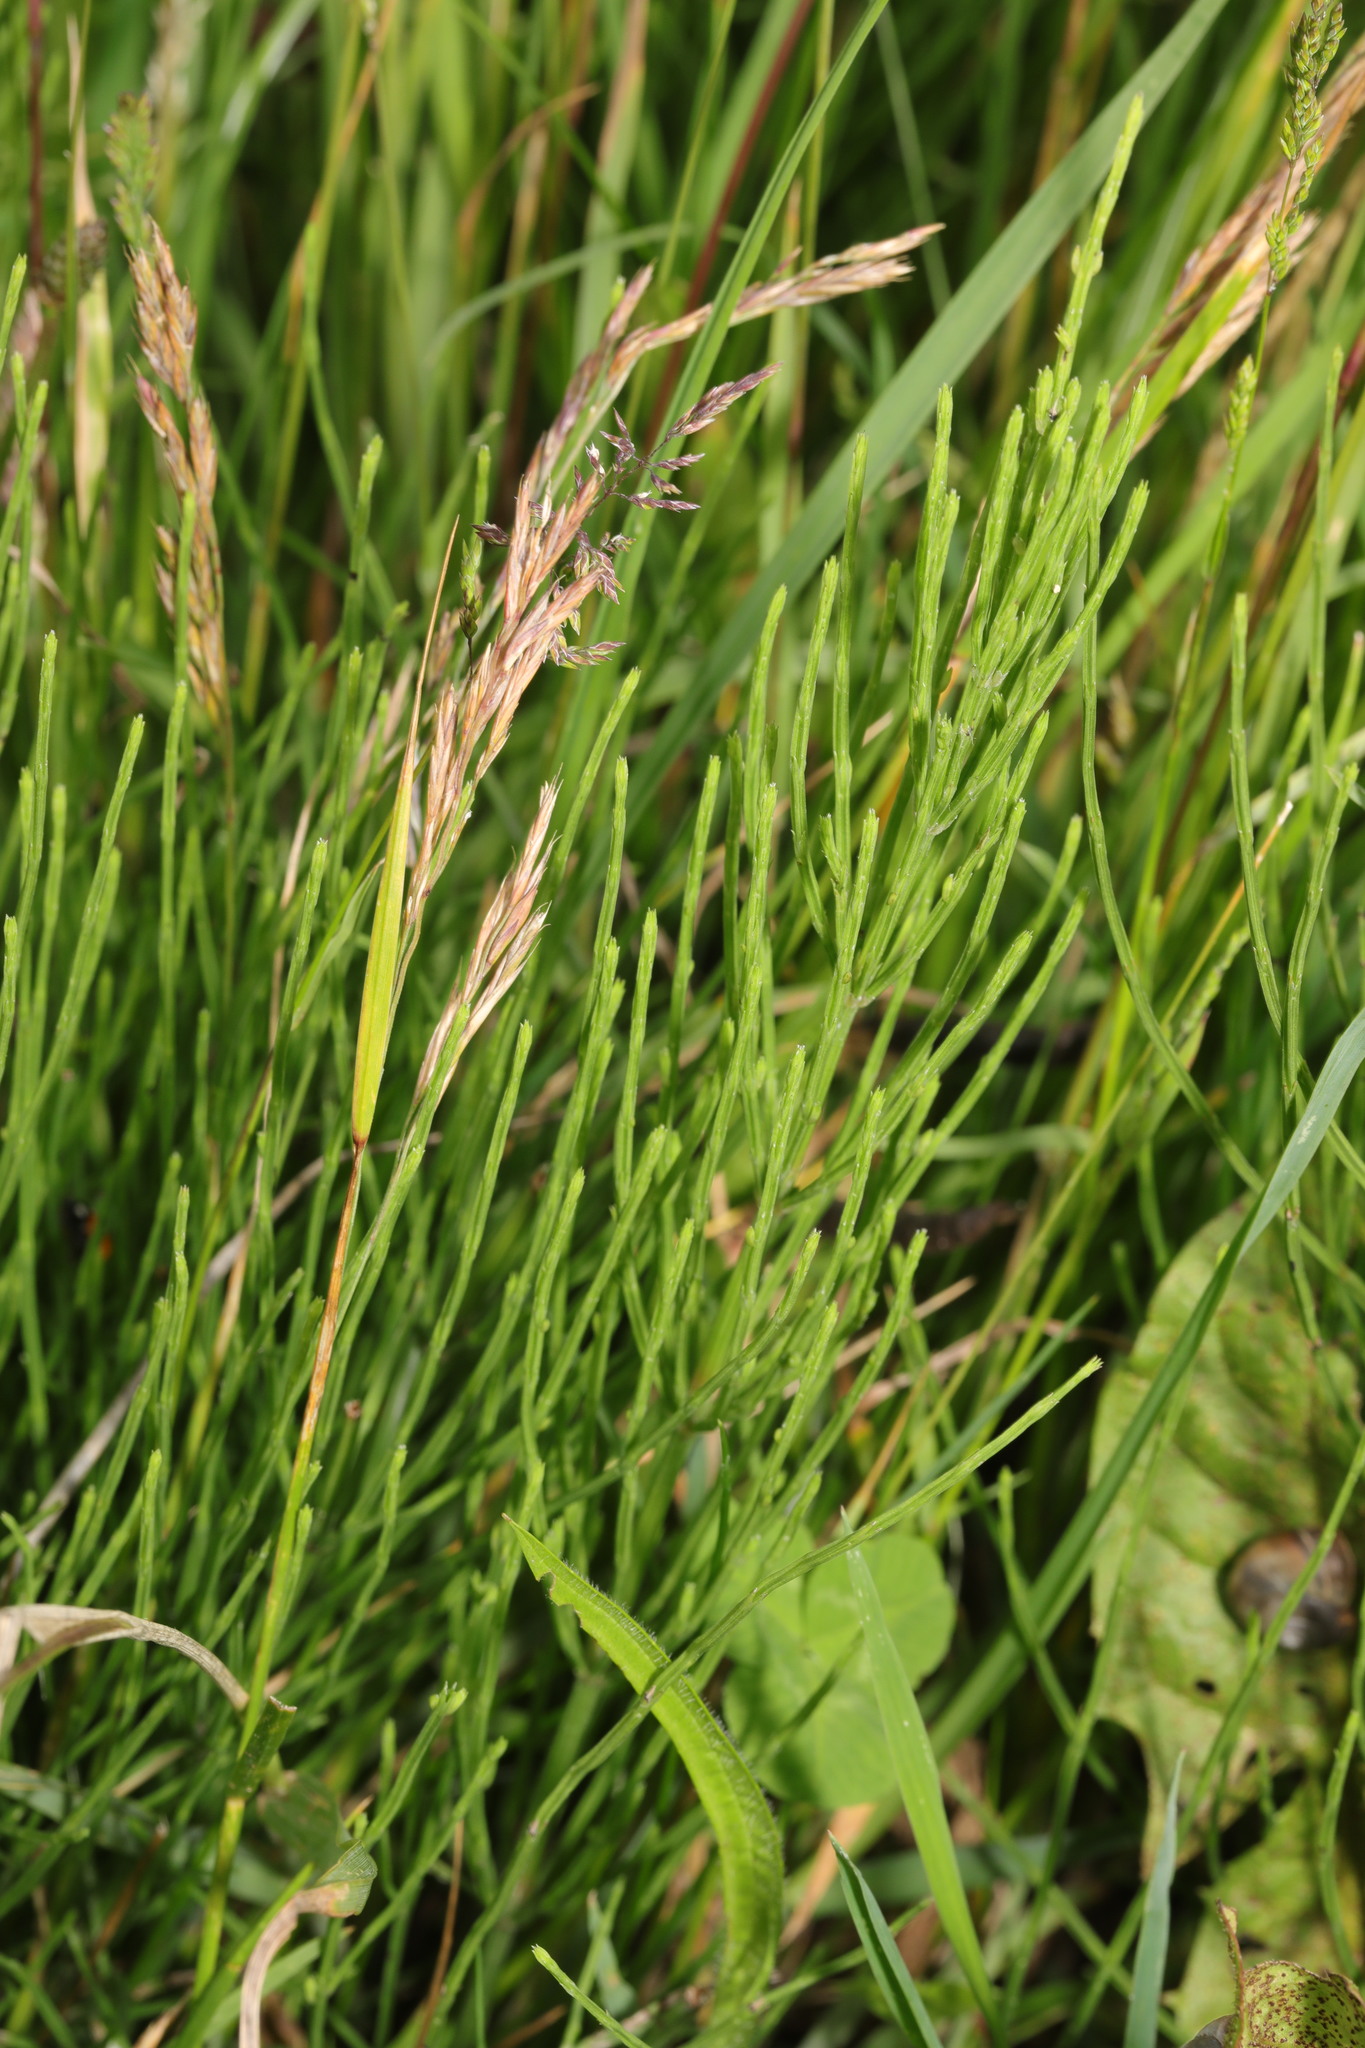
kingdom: Plantae
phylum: Tracheophyta
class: Polypodiopsida
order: Equisetales
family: Equisetaceae
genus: Equisetum
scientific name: Equisetum arvense
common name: Field horsetail
